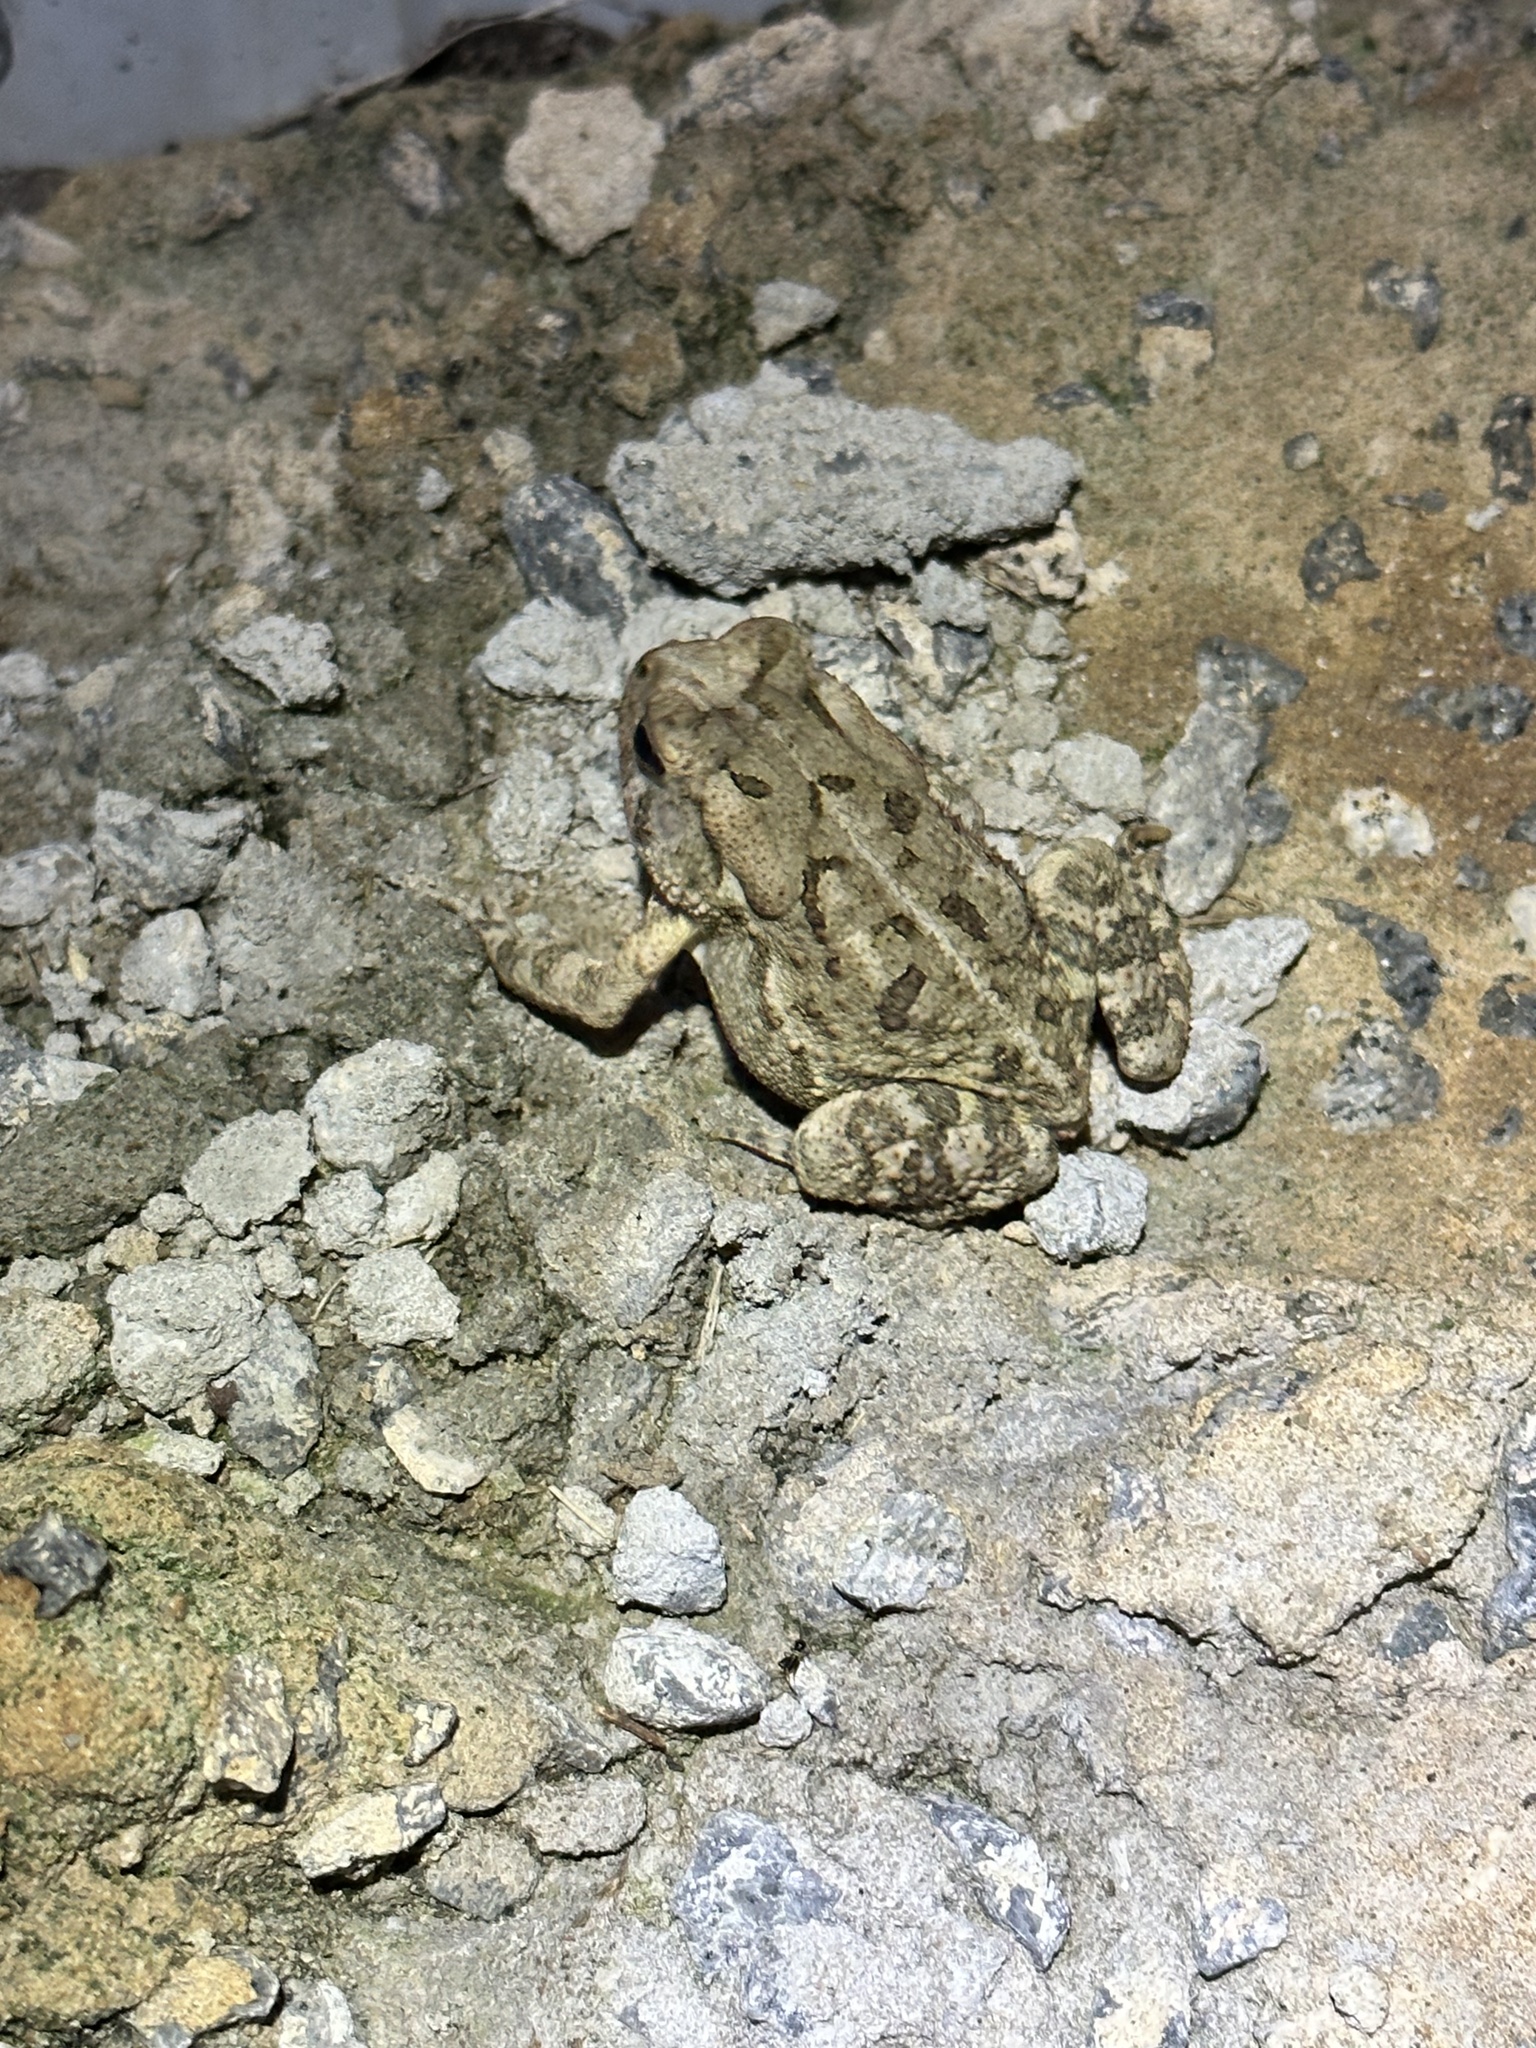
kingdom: Animalia
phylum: Chordata
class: Amphibia
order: Anura
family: Bufonidae
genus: Anaxyrus
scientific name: Anaxyrus fowleri
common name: Fowler's toad
